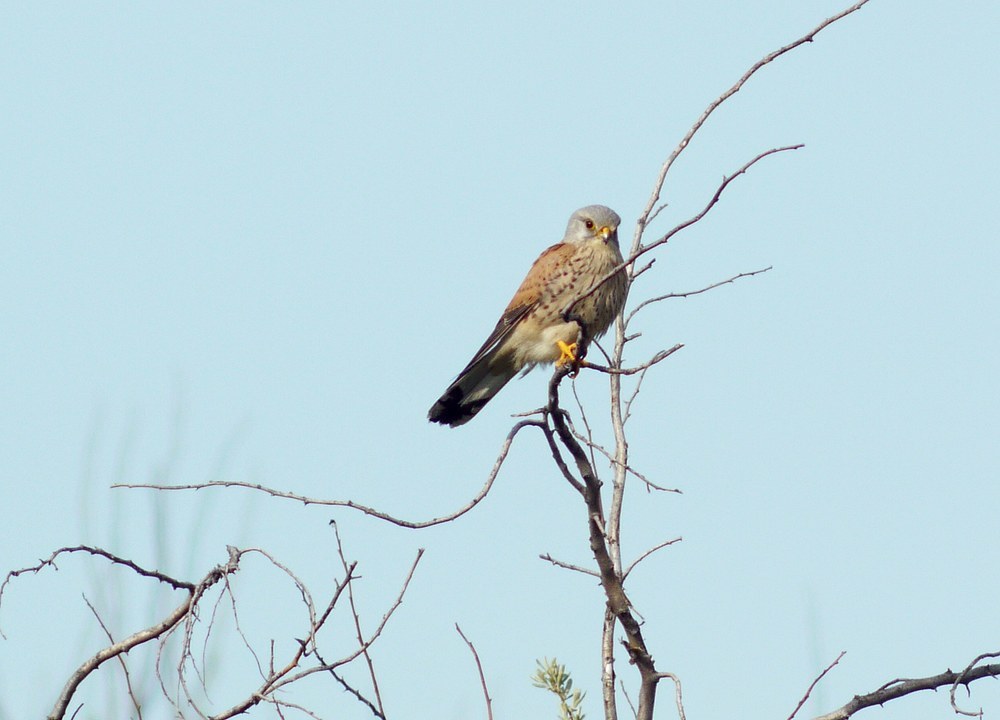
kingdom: Animalia
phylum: Chordata
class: Aves
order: Falconiformes
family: Falconidae
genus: Falco
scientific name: Falco tinnunculus
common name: Common kestrel
